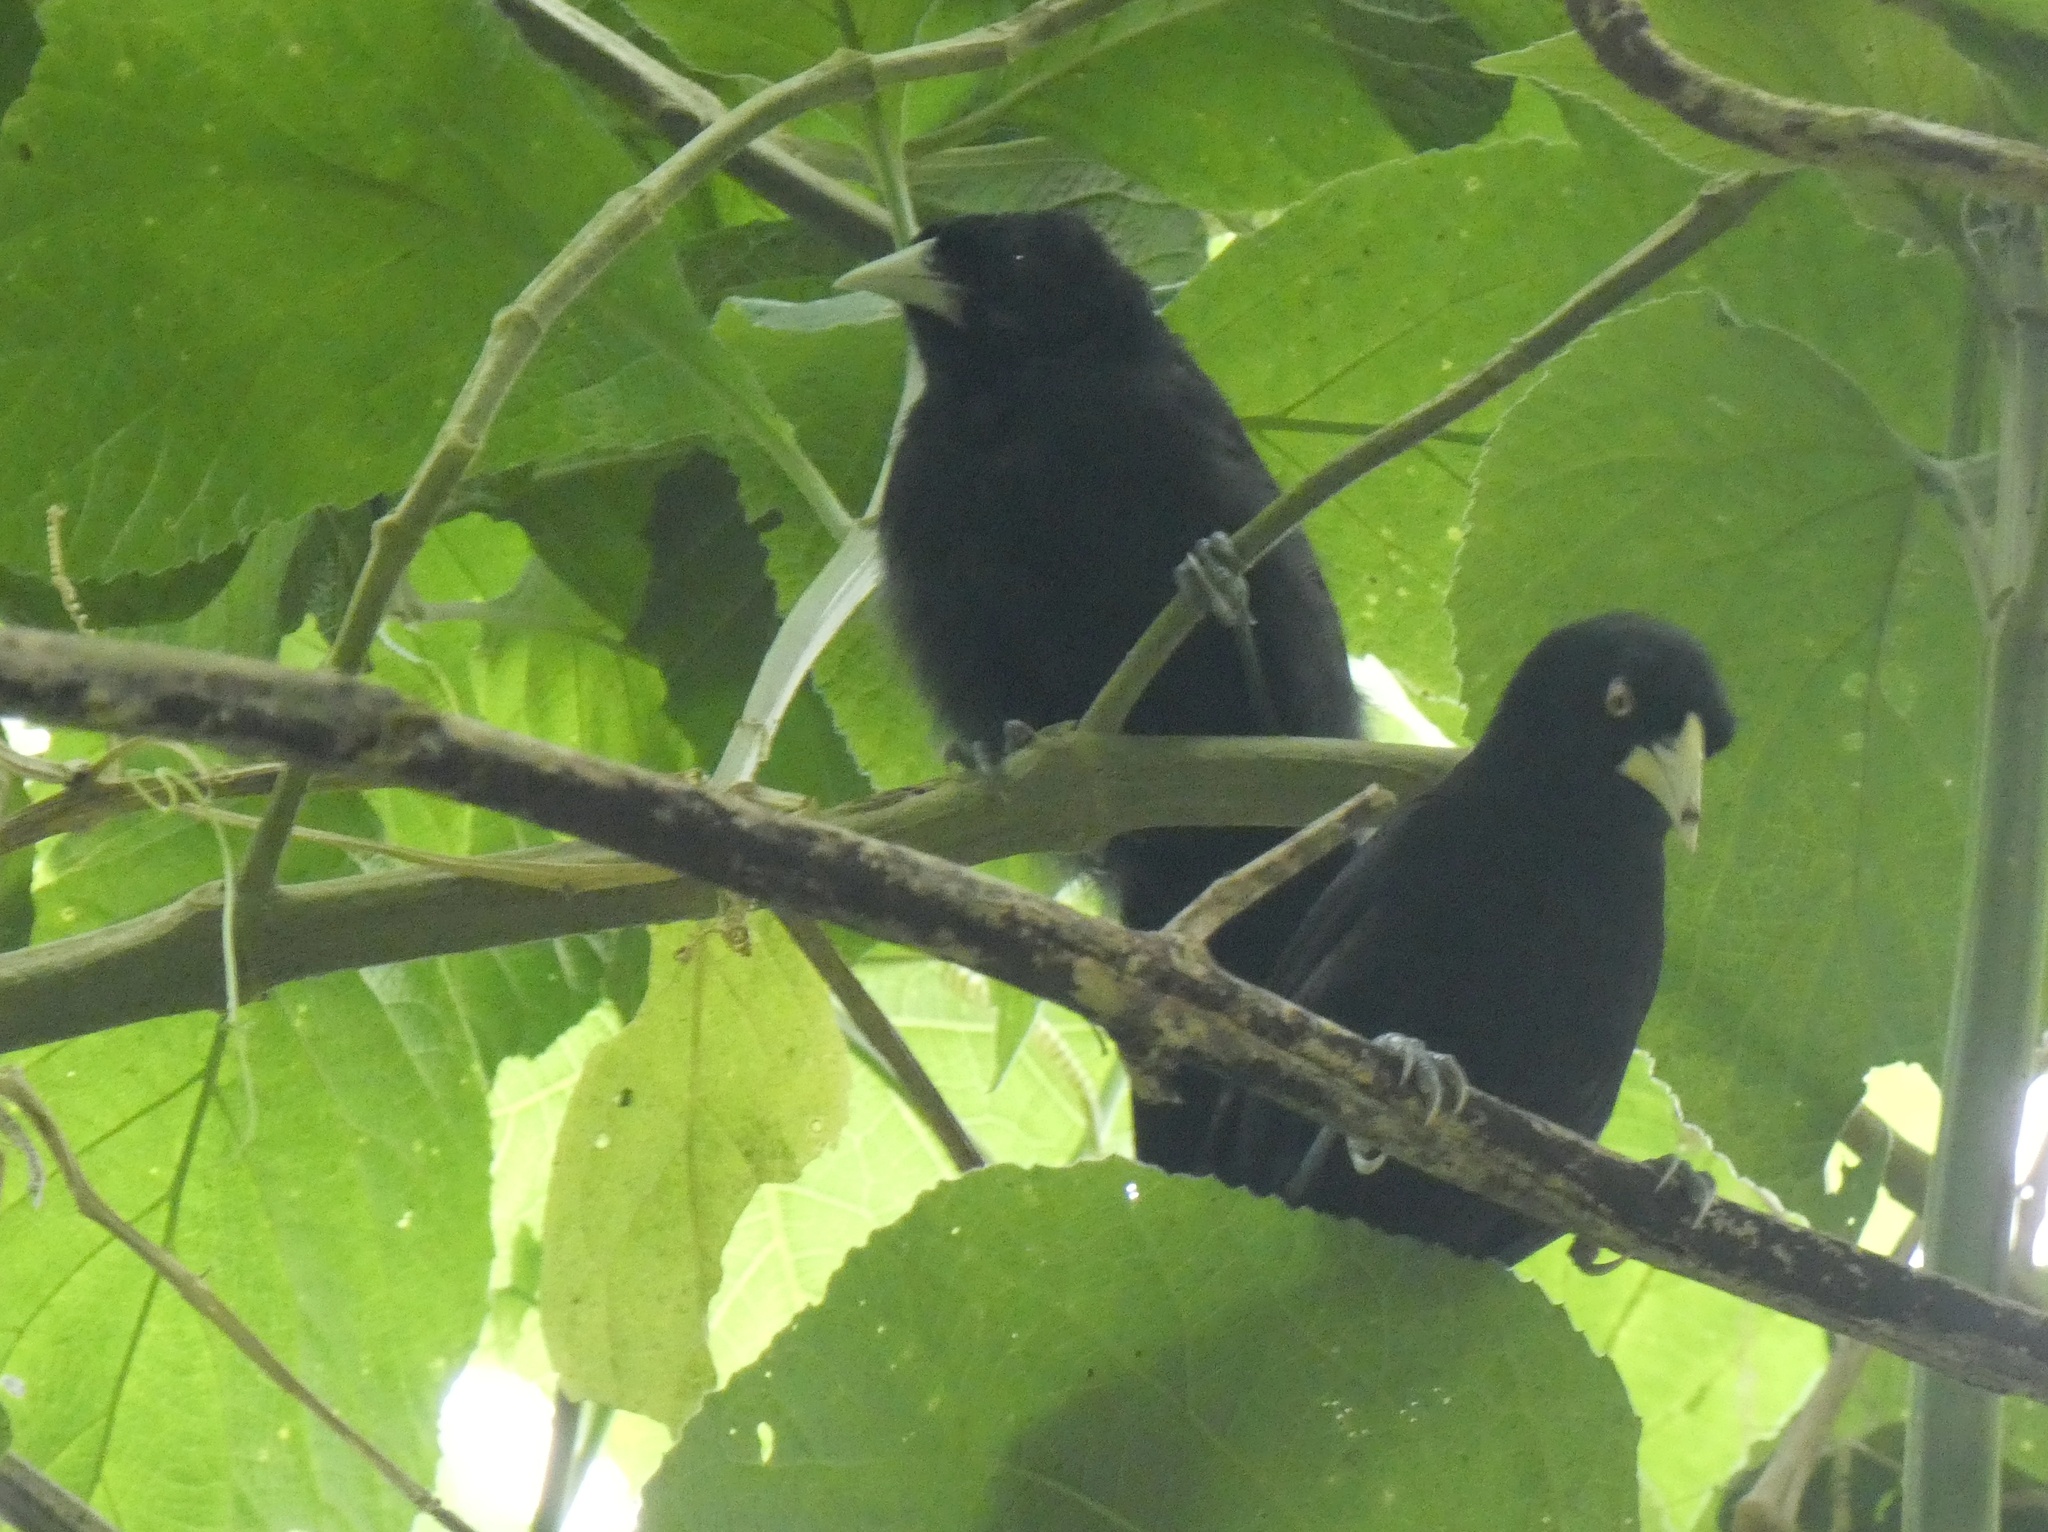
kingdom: Animalia
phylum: Chordata
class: Aves
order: Passeriformes
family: Icteridae
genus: Amblycercus
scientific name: Amblycercus holosericeus
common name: Yellow-billed cacique
